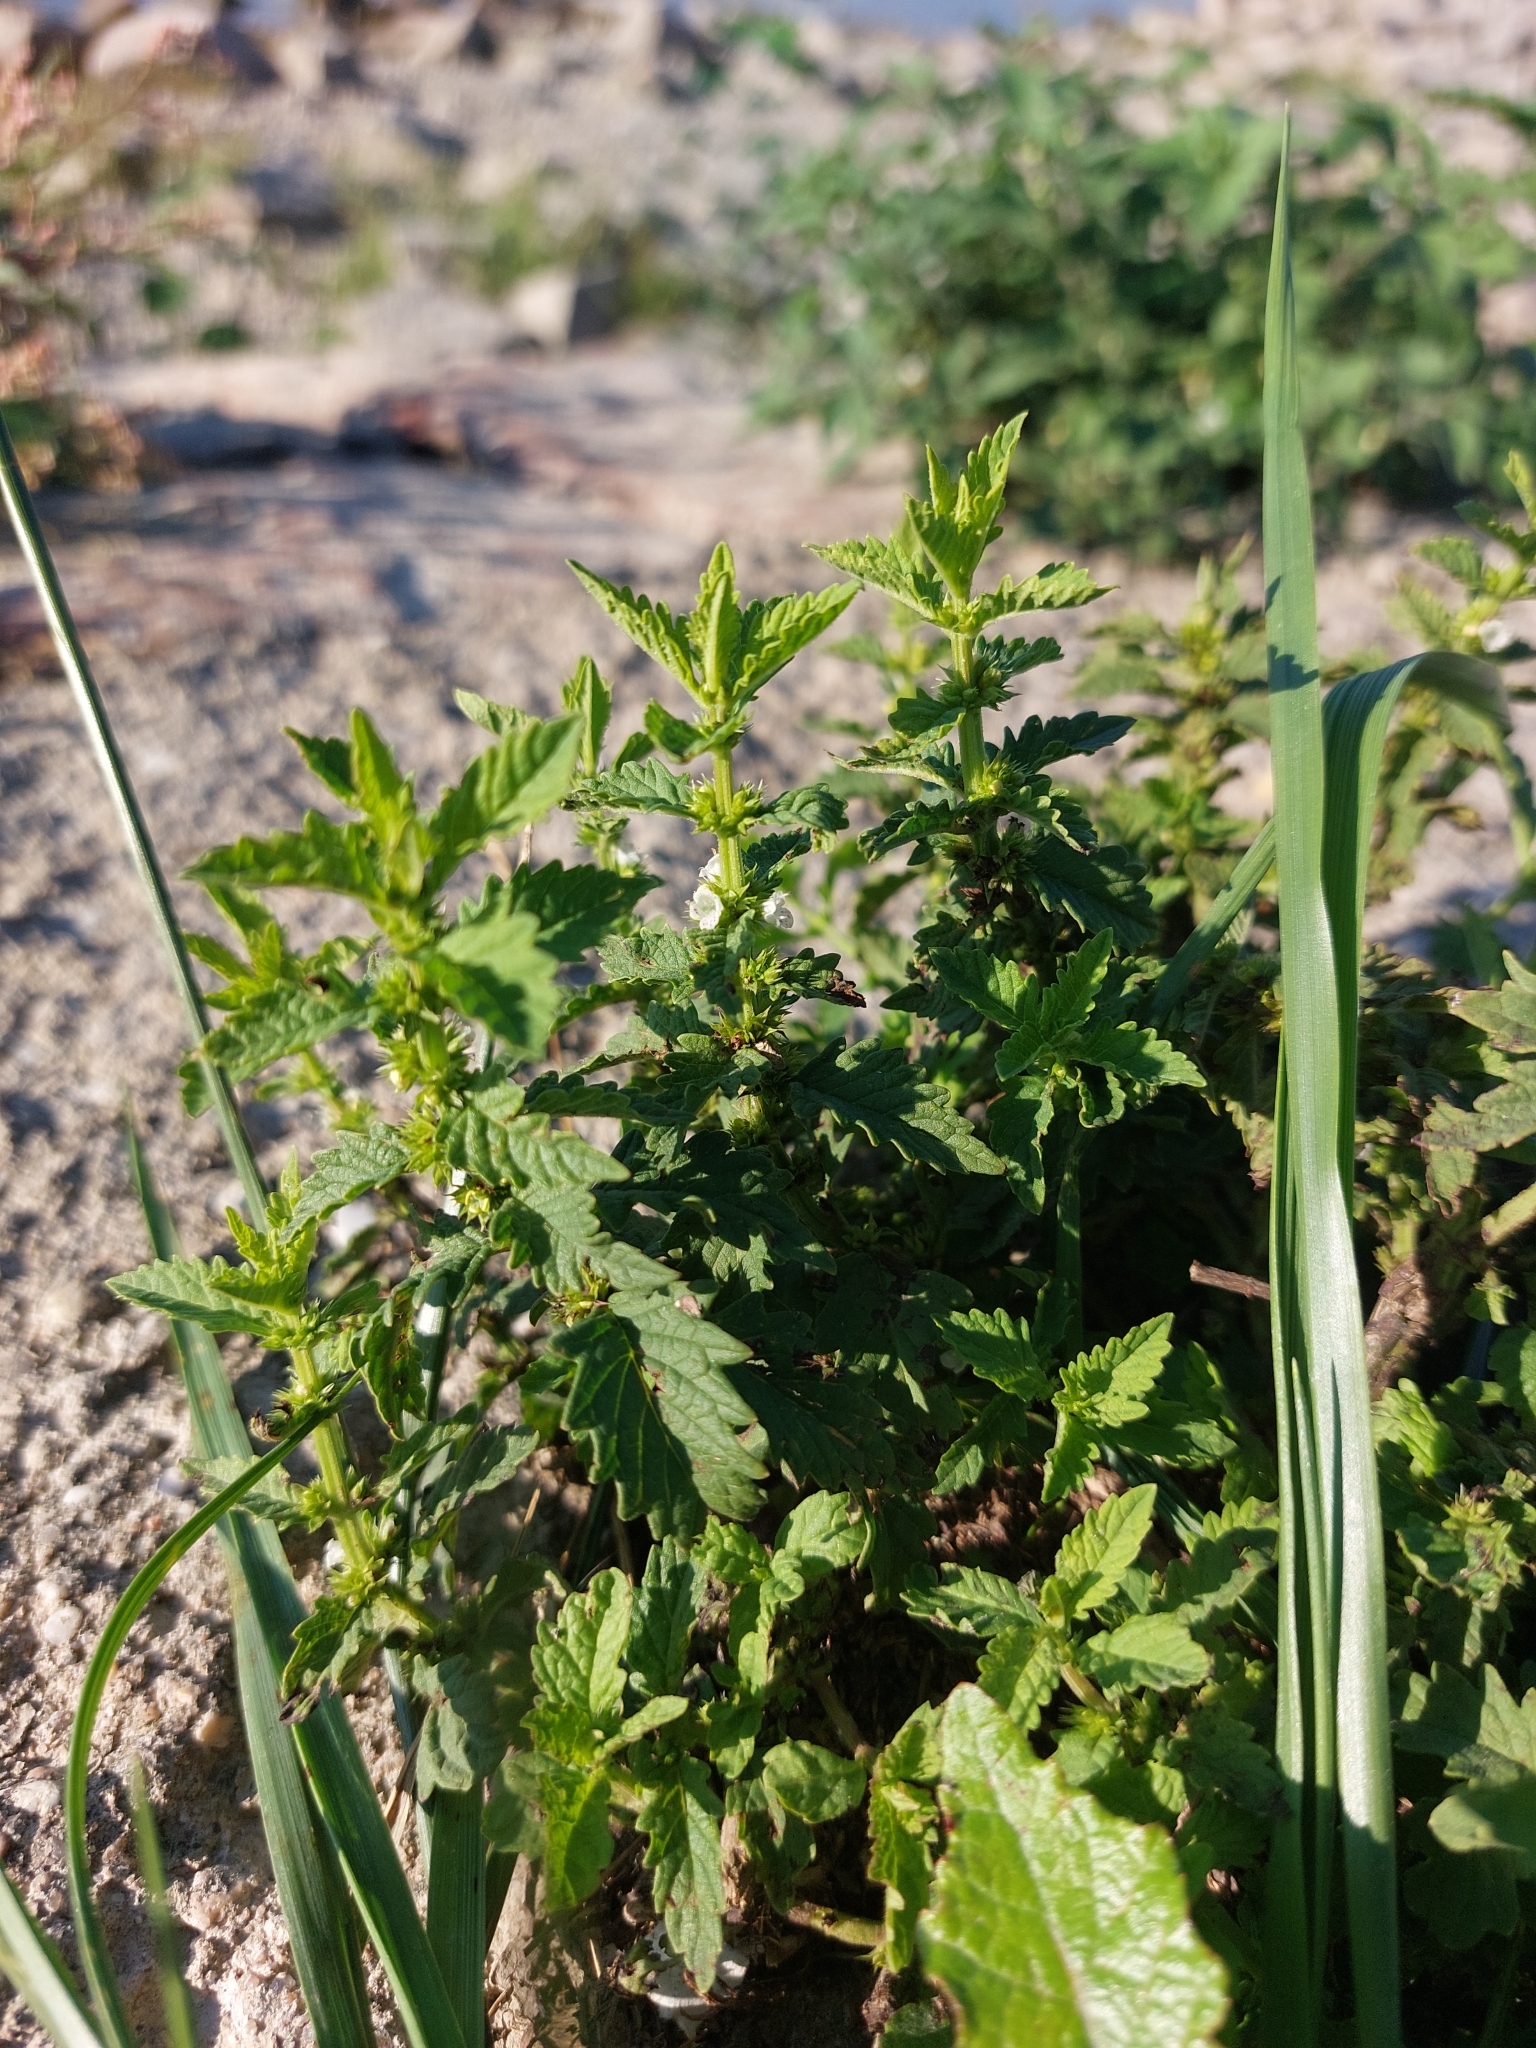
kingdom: Plantae
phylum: Tracheophyta
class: Magnoliopsida
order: Lamiales
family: Lamiaceae
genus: Lycopus
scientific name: Lycopus europaeus
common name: European bugleweed
